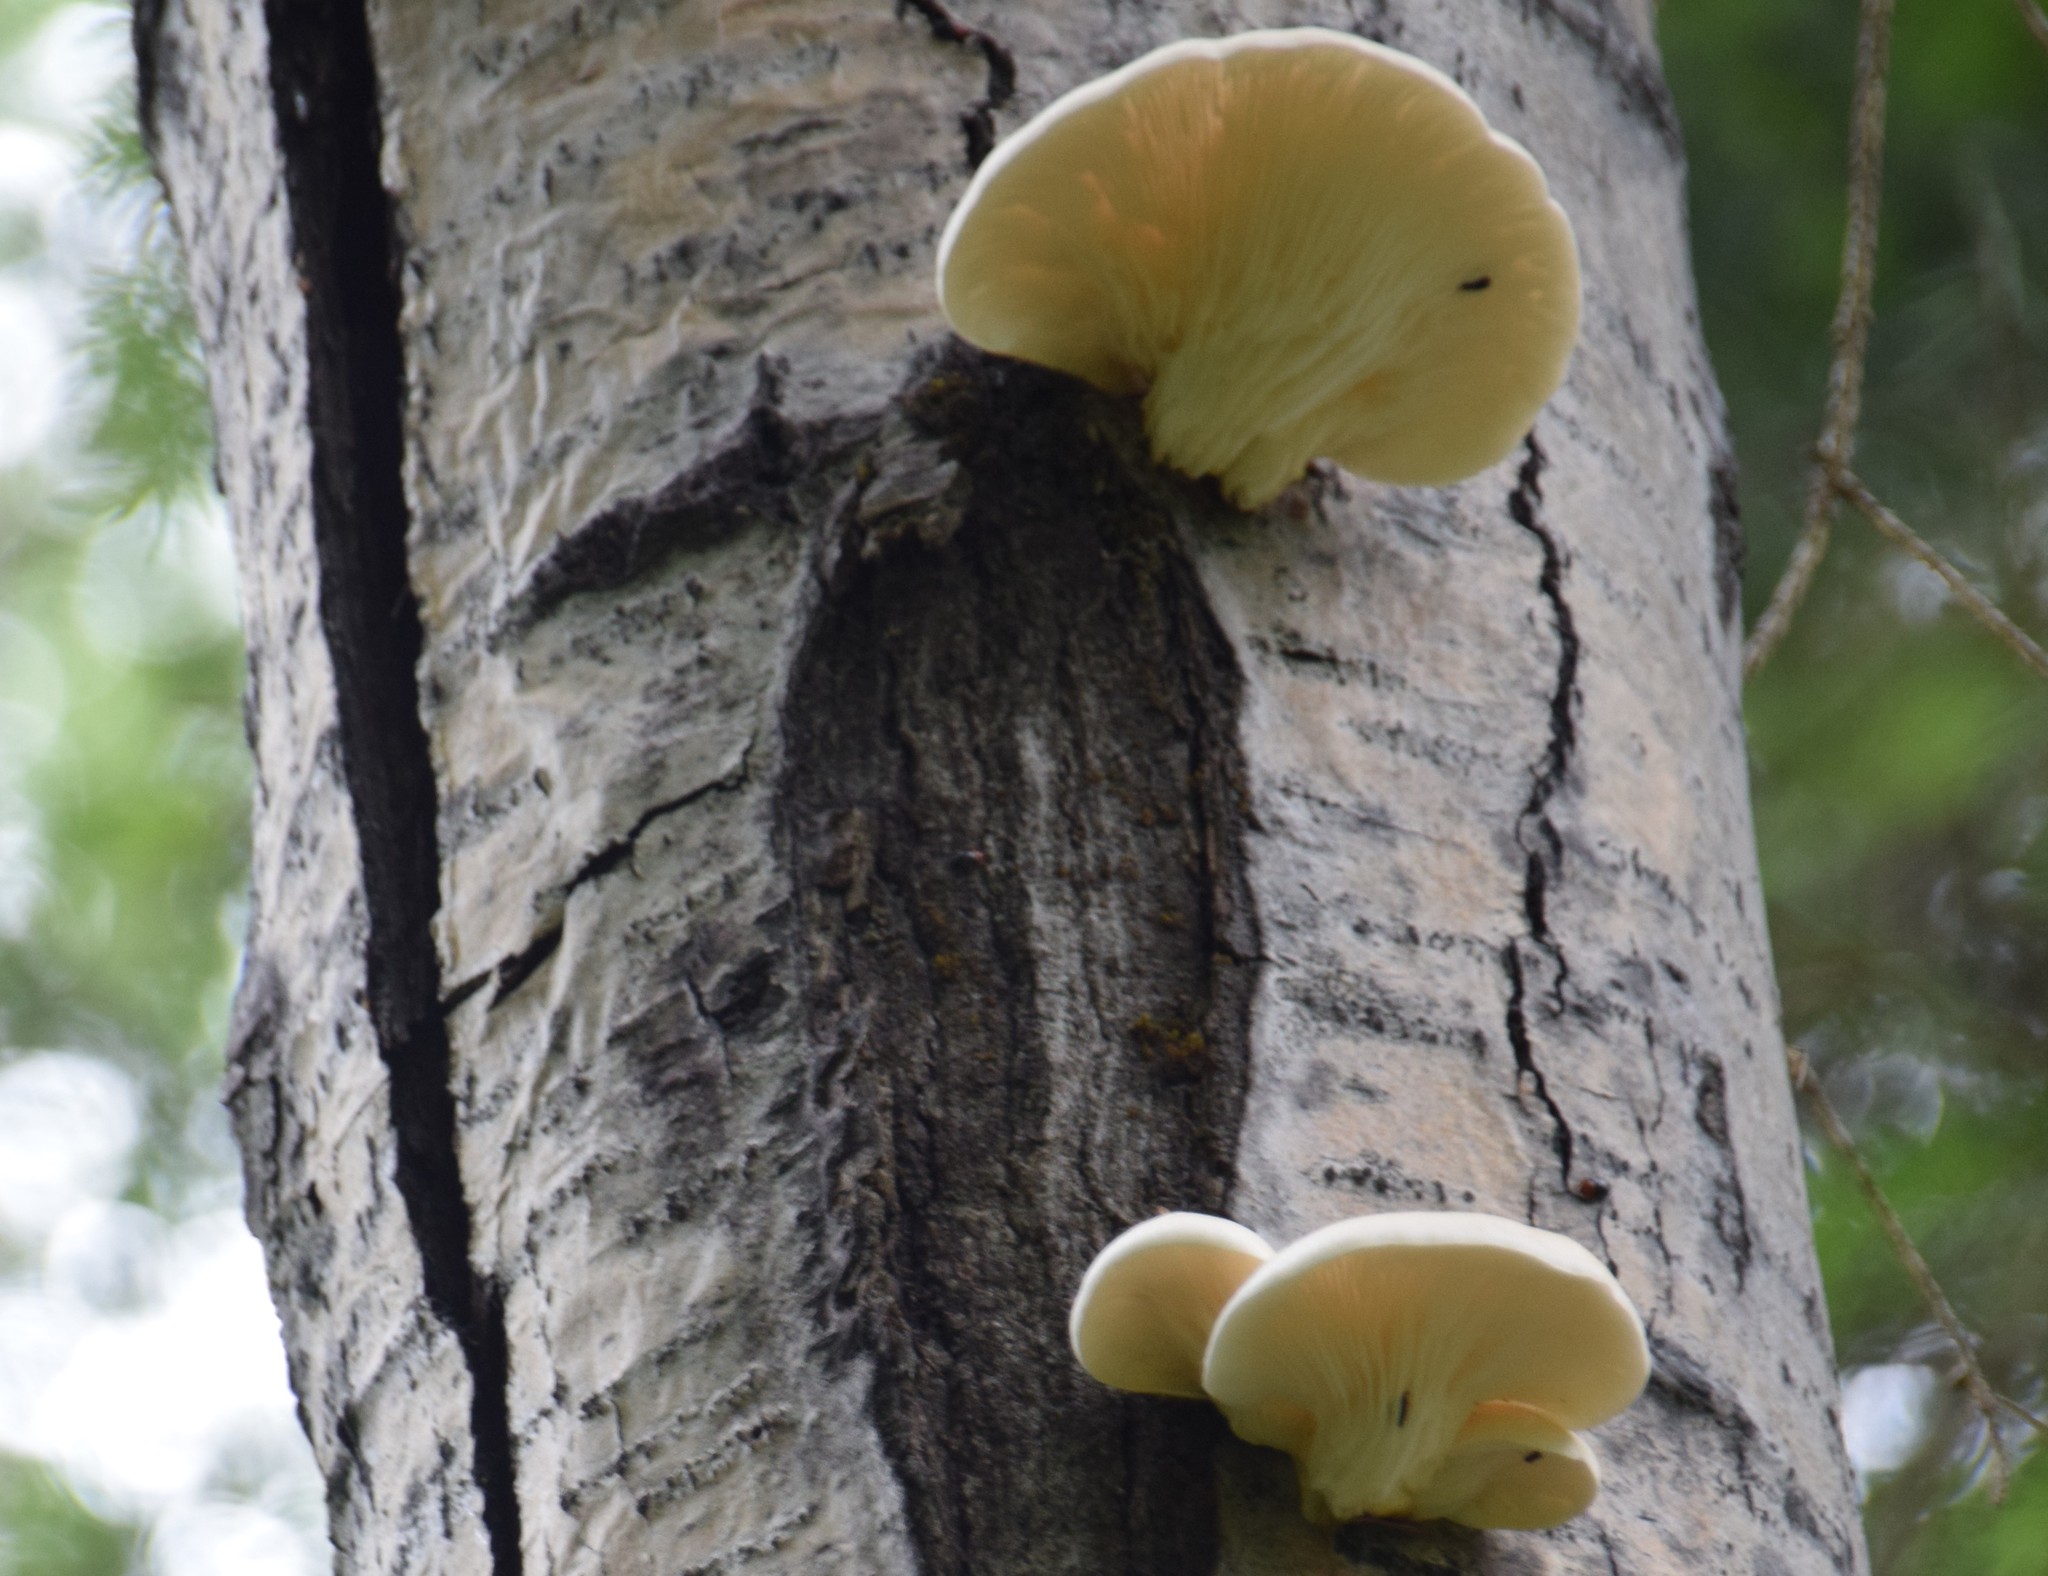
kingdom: Fungi
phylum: Basidiomycota
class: Agaricomycetes
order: Agaricales
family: Pleurotaceae
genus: Pleurotus
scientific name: Pleurotus populinus
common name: Aspen oyster mushroom
